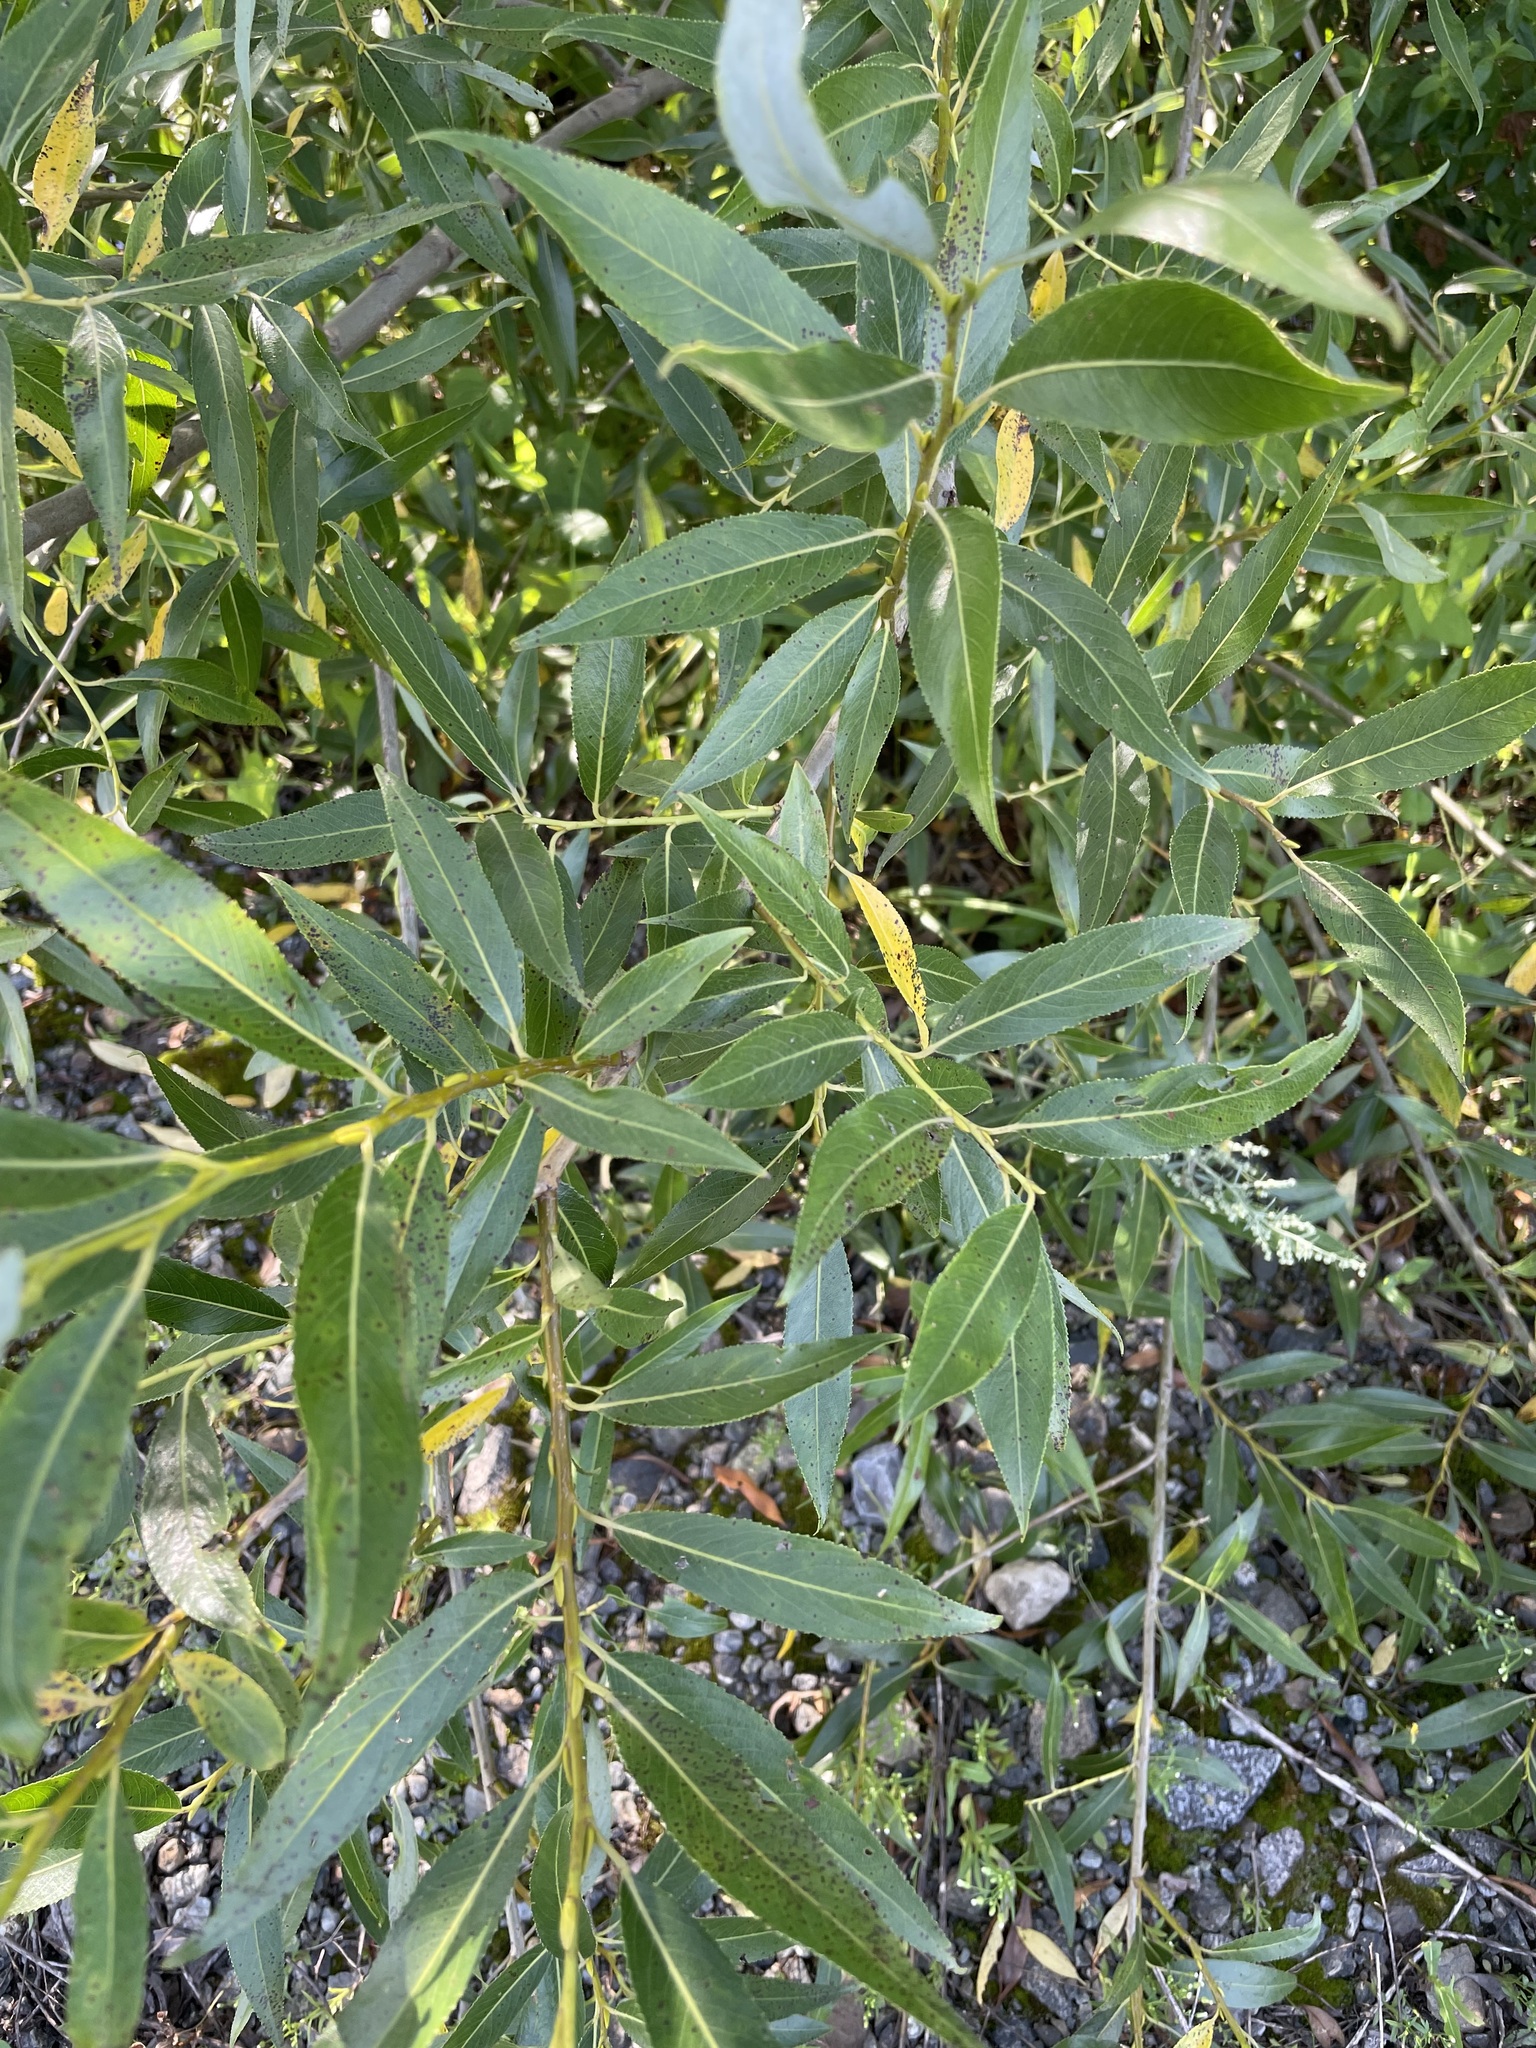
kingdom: Plantae
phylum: Tracheophyta
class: Magnoliopsida
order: Malpighiales
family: Salicaceae
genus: Salix
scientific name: Salix triandra
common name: Almond willow
